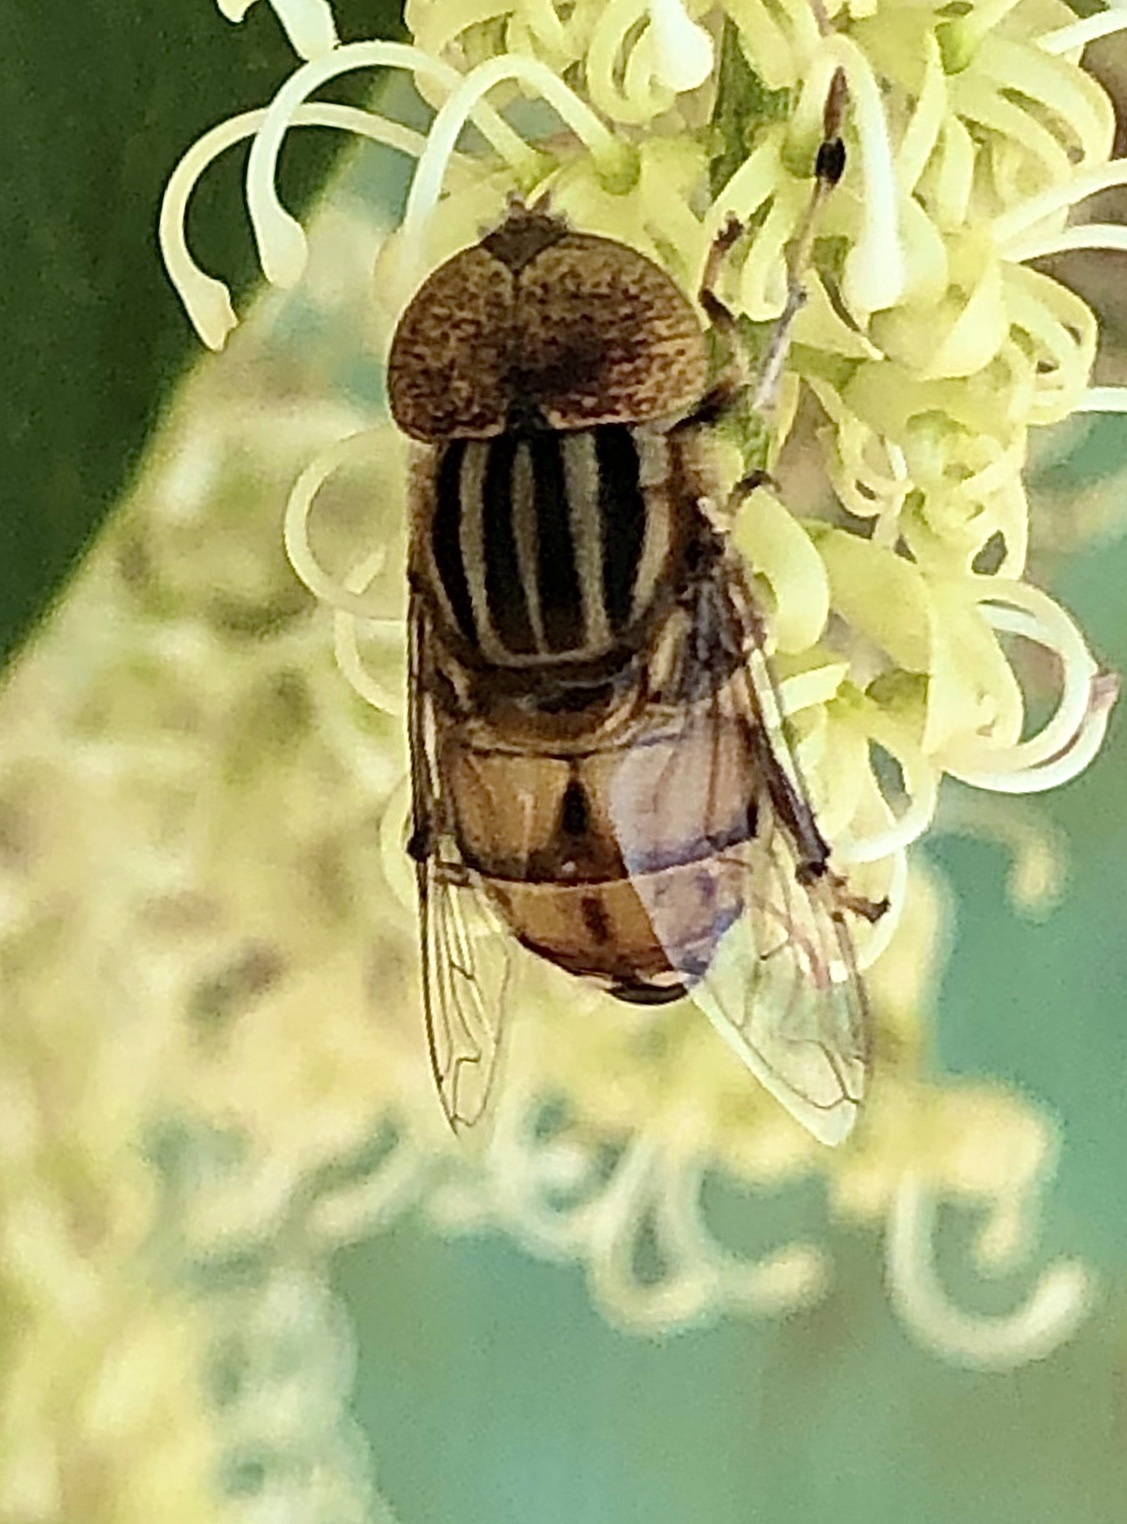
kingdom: Animalia
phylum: Arthropoda
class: Insecta
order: Diptera
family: Syrphidae
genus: Eristalinus
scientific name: Eristalinus punctulatus
